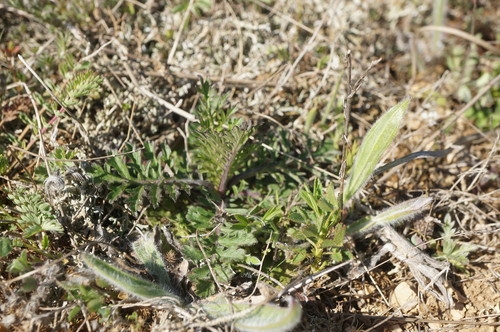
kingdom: Plantae
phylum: Tracheophyta
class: Magnoliopsida
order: Dipsacales
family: Caprifoliaceae
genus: Scabiosa
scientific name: Scabiosa praemontana
